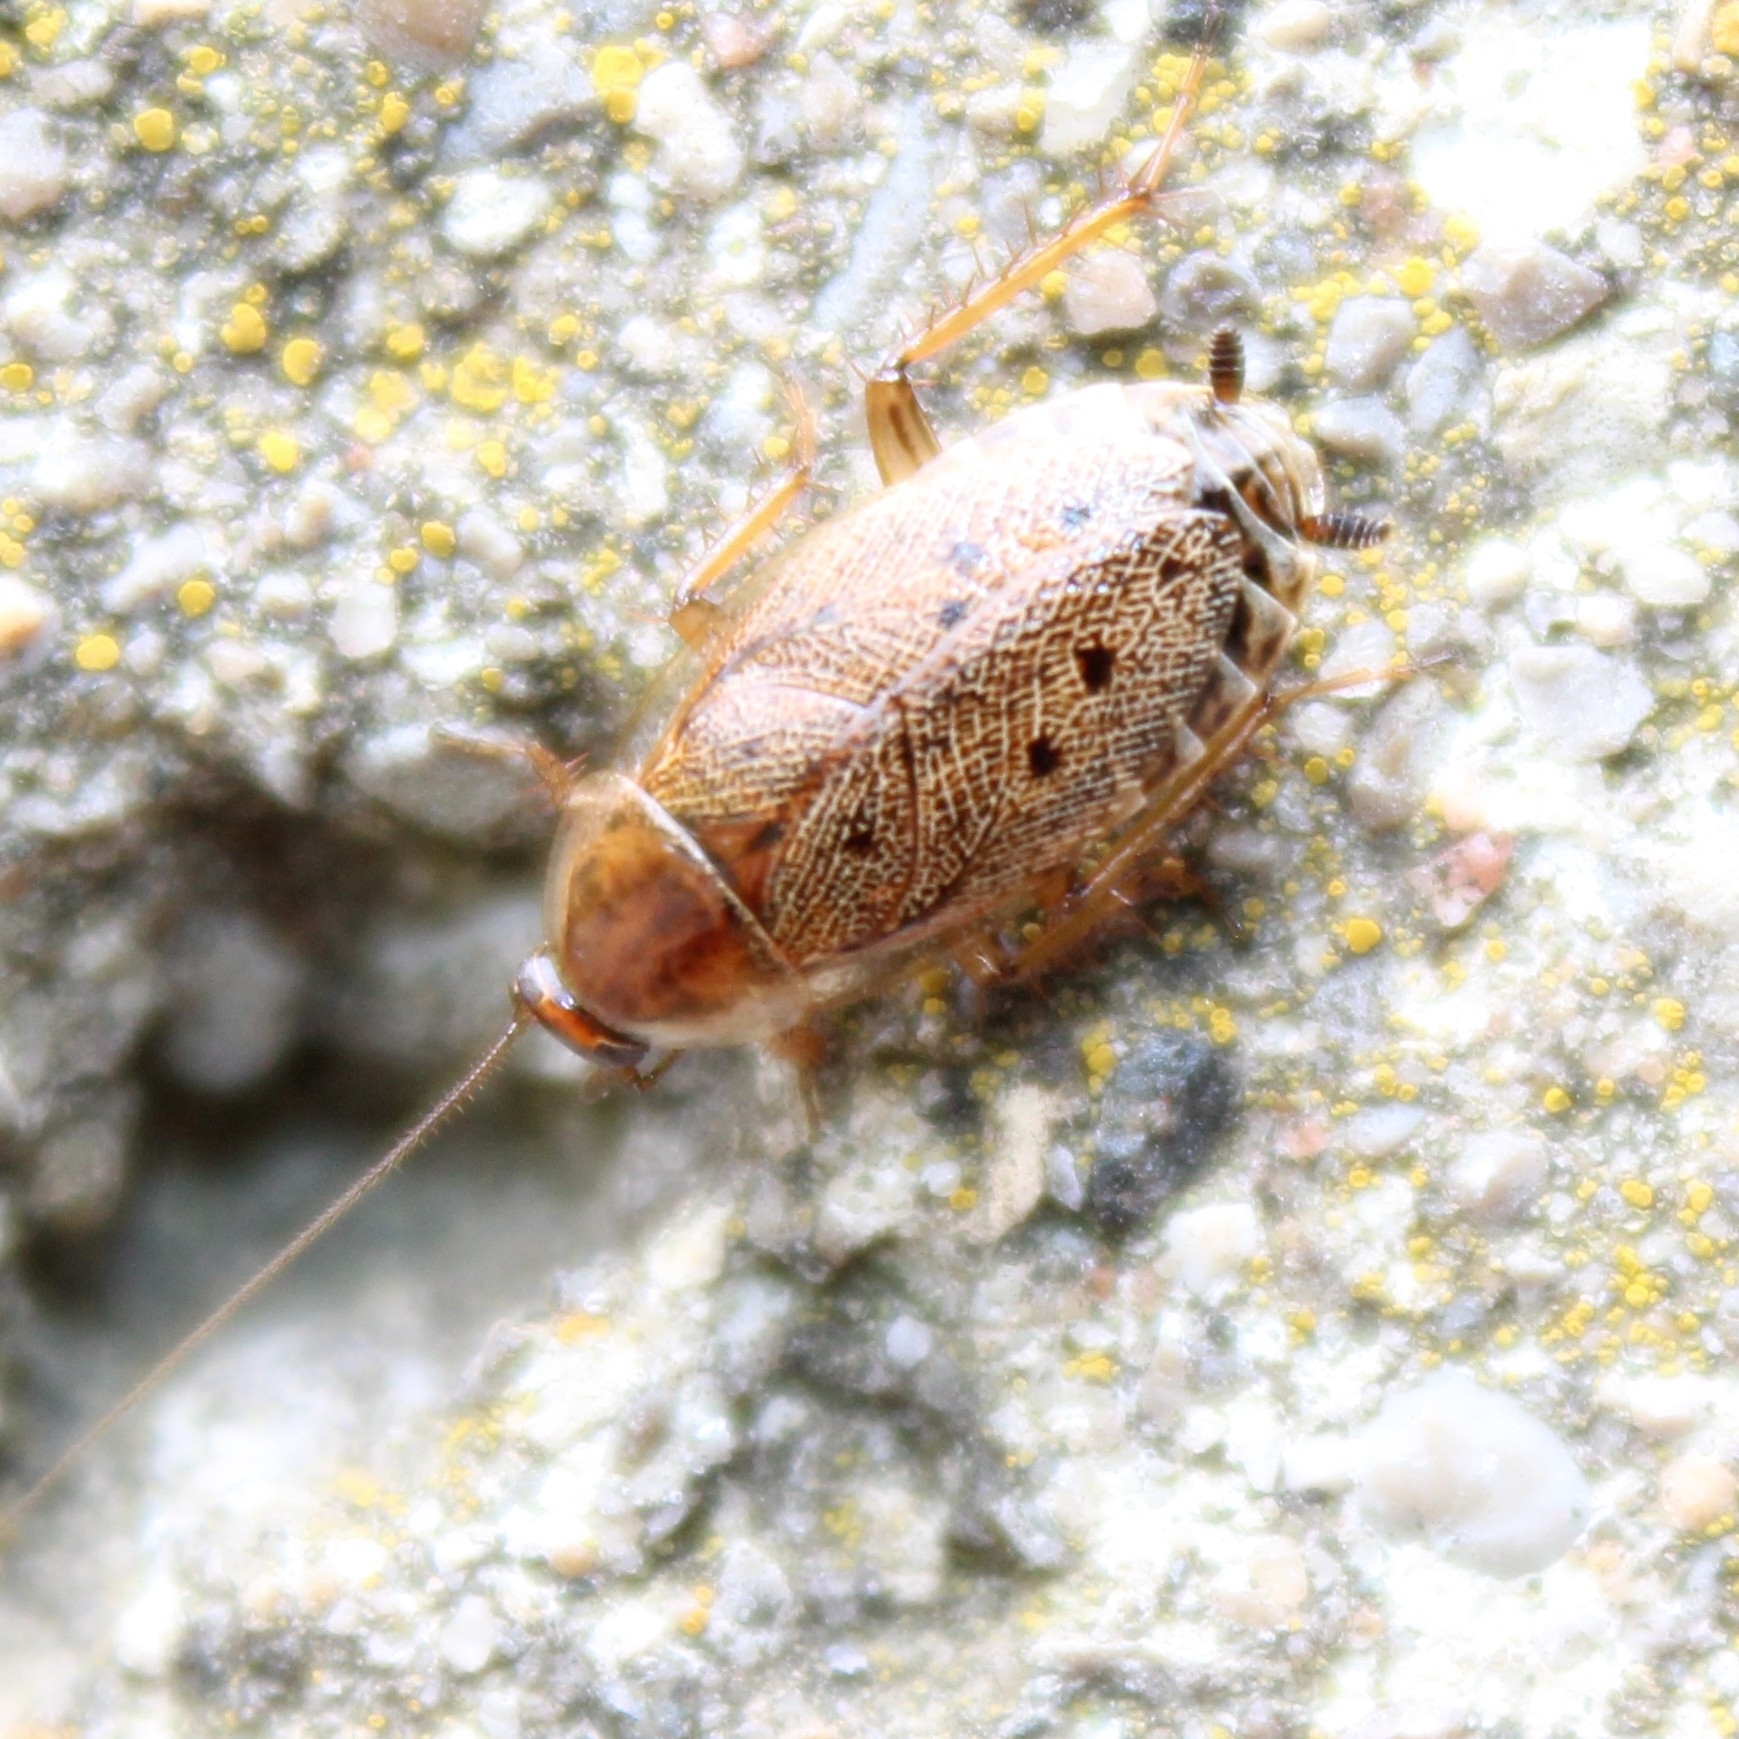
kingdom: Animalia
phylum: Arthropoda
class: Insecta
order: Blattodea
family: Ectobiidae
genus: Ectobius
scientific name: Ectobius lapponicus
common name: Dusky cockroach
